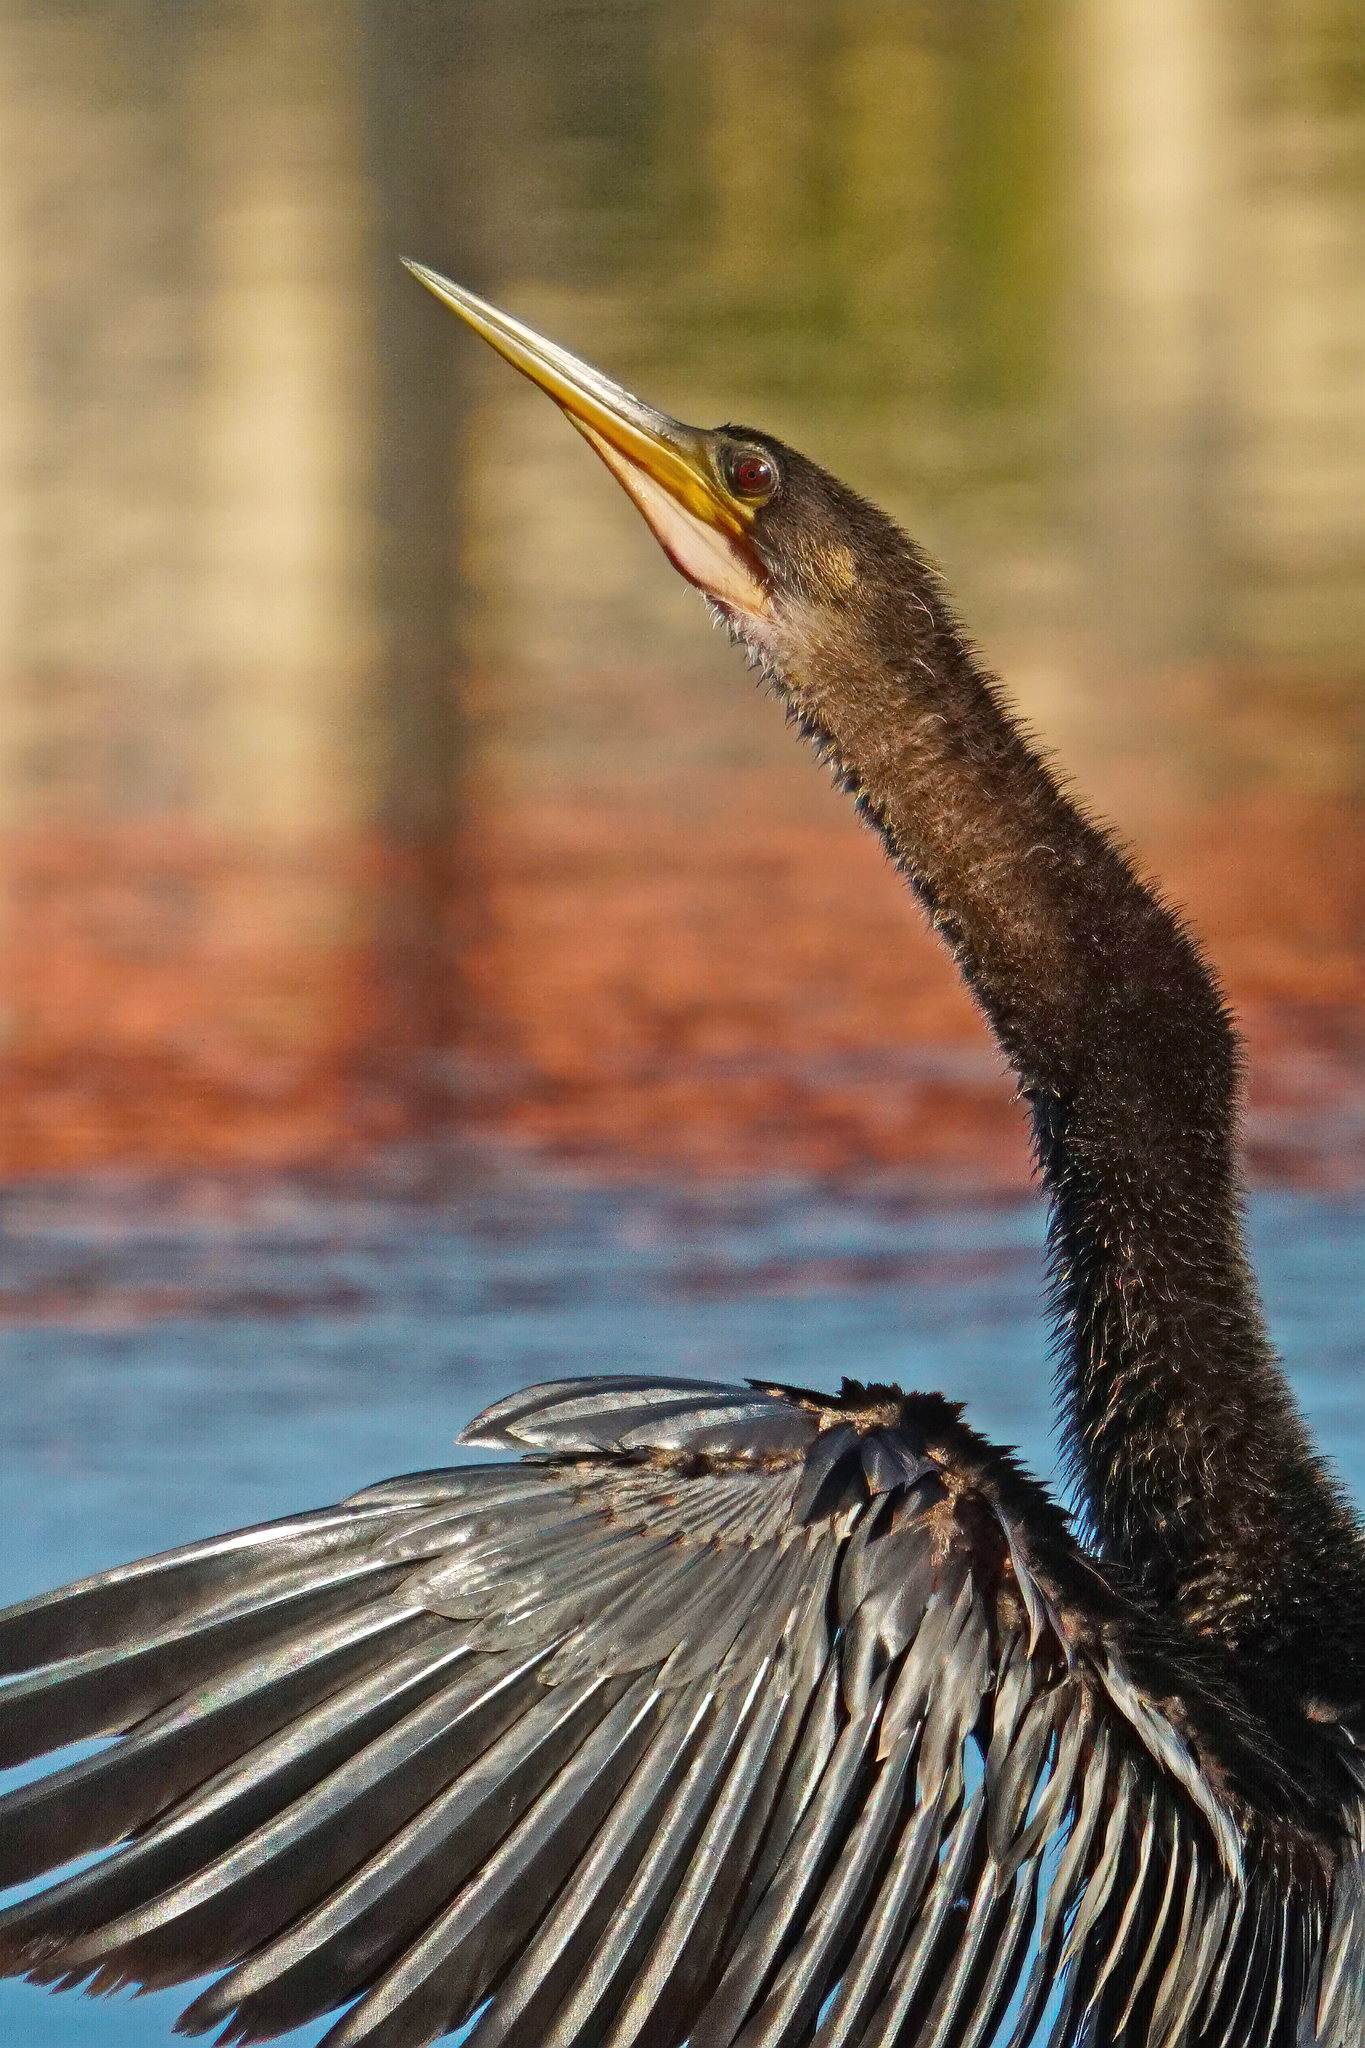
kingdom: Animalia
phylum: Chordata
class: Aves
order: Suliformes
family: Anhingidae
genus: Anhinga
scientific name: Anhinga anhinga
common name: Anhinga
